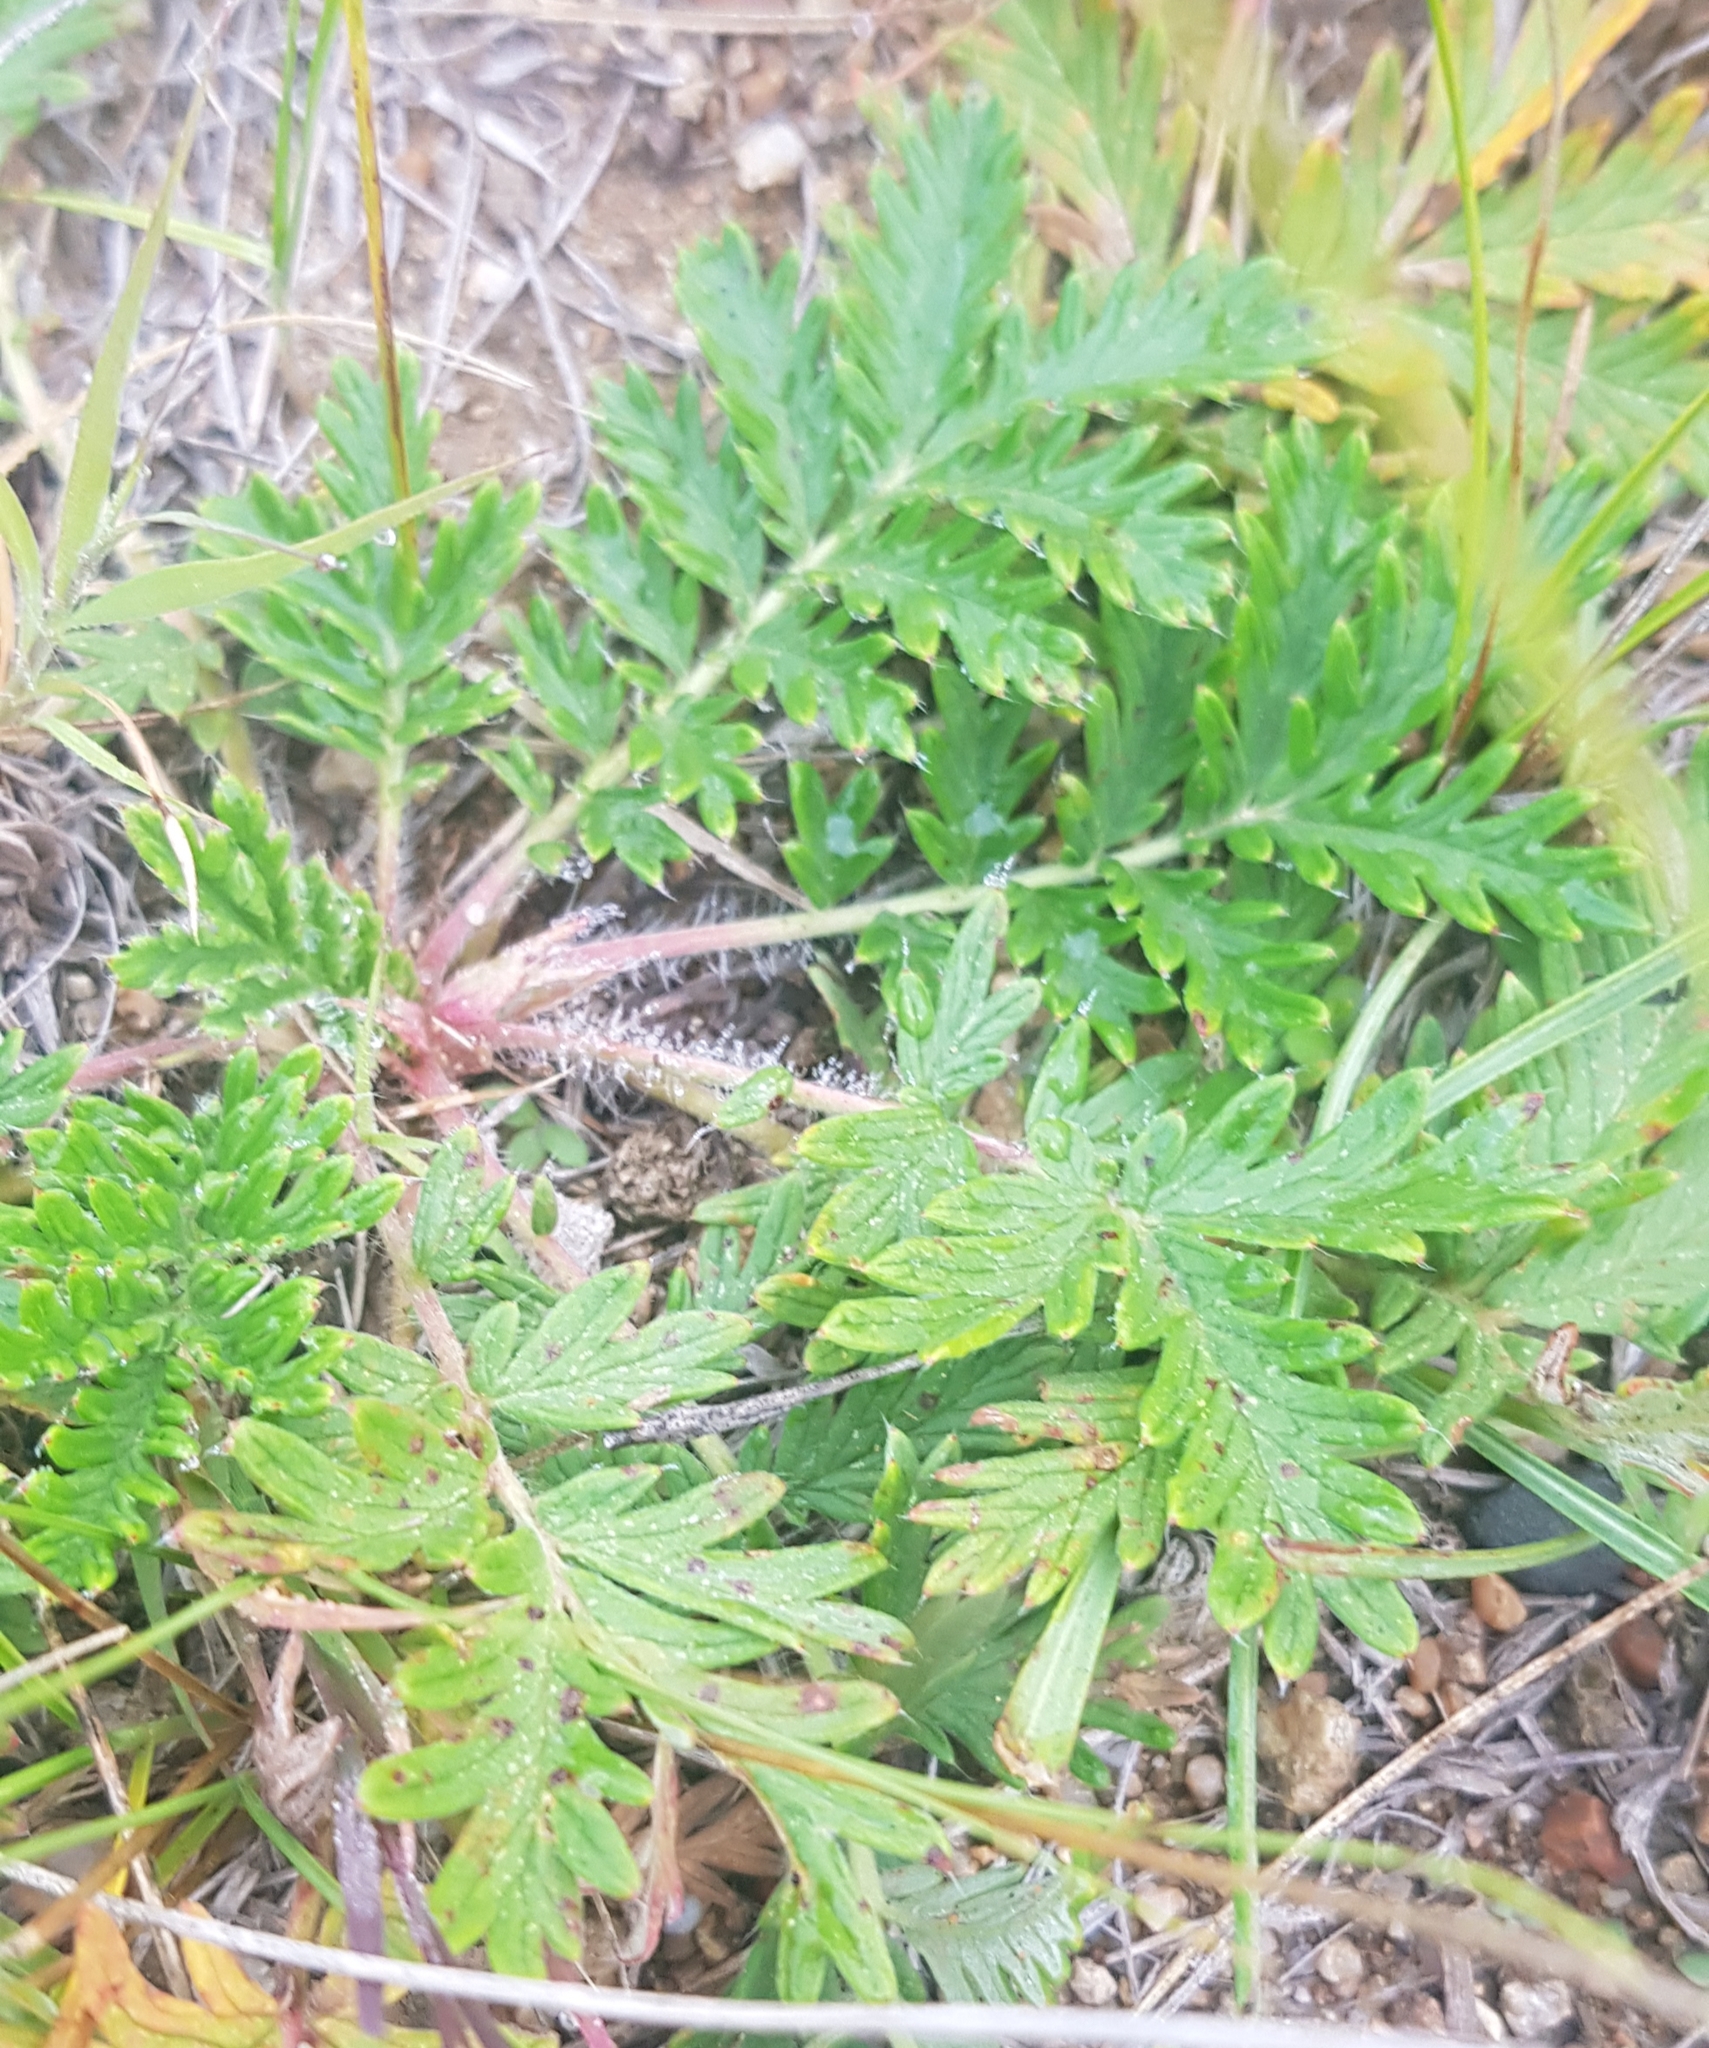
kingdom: Plantae
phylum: Tracheophyta
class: Magnoliopsida
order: Rosales
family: Rosaceae
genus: Potentilla
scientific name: Potentilla tanacetifolia
